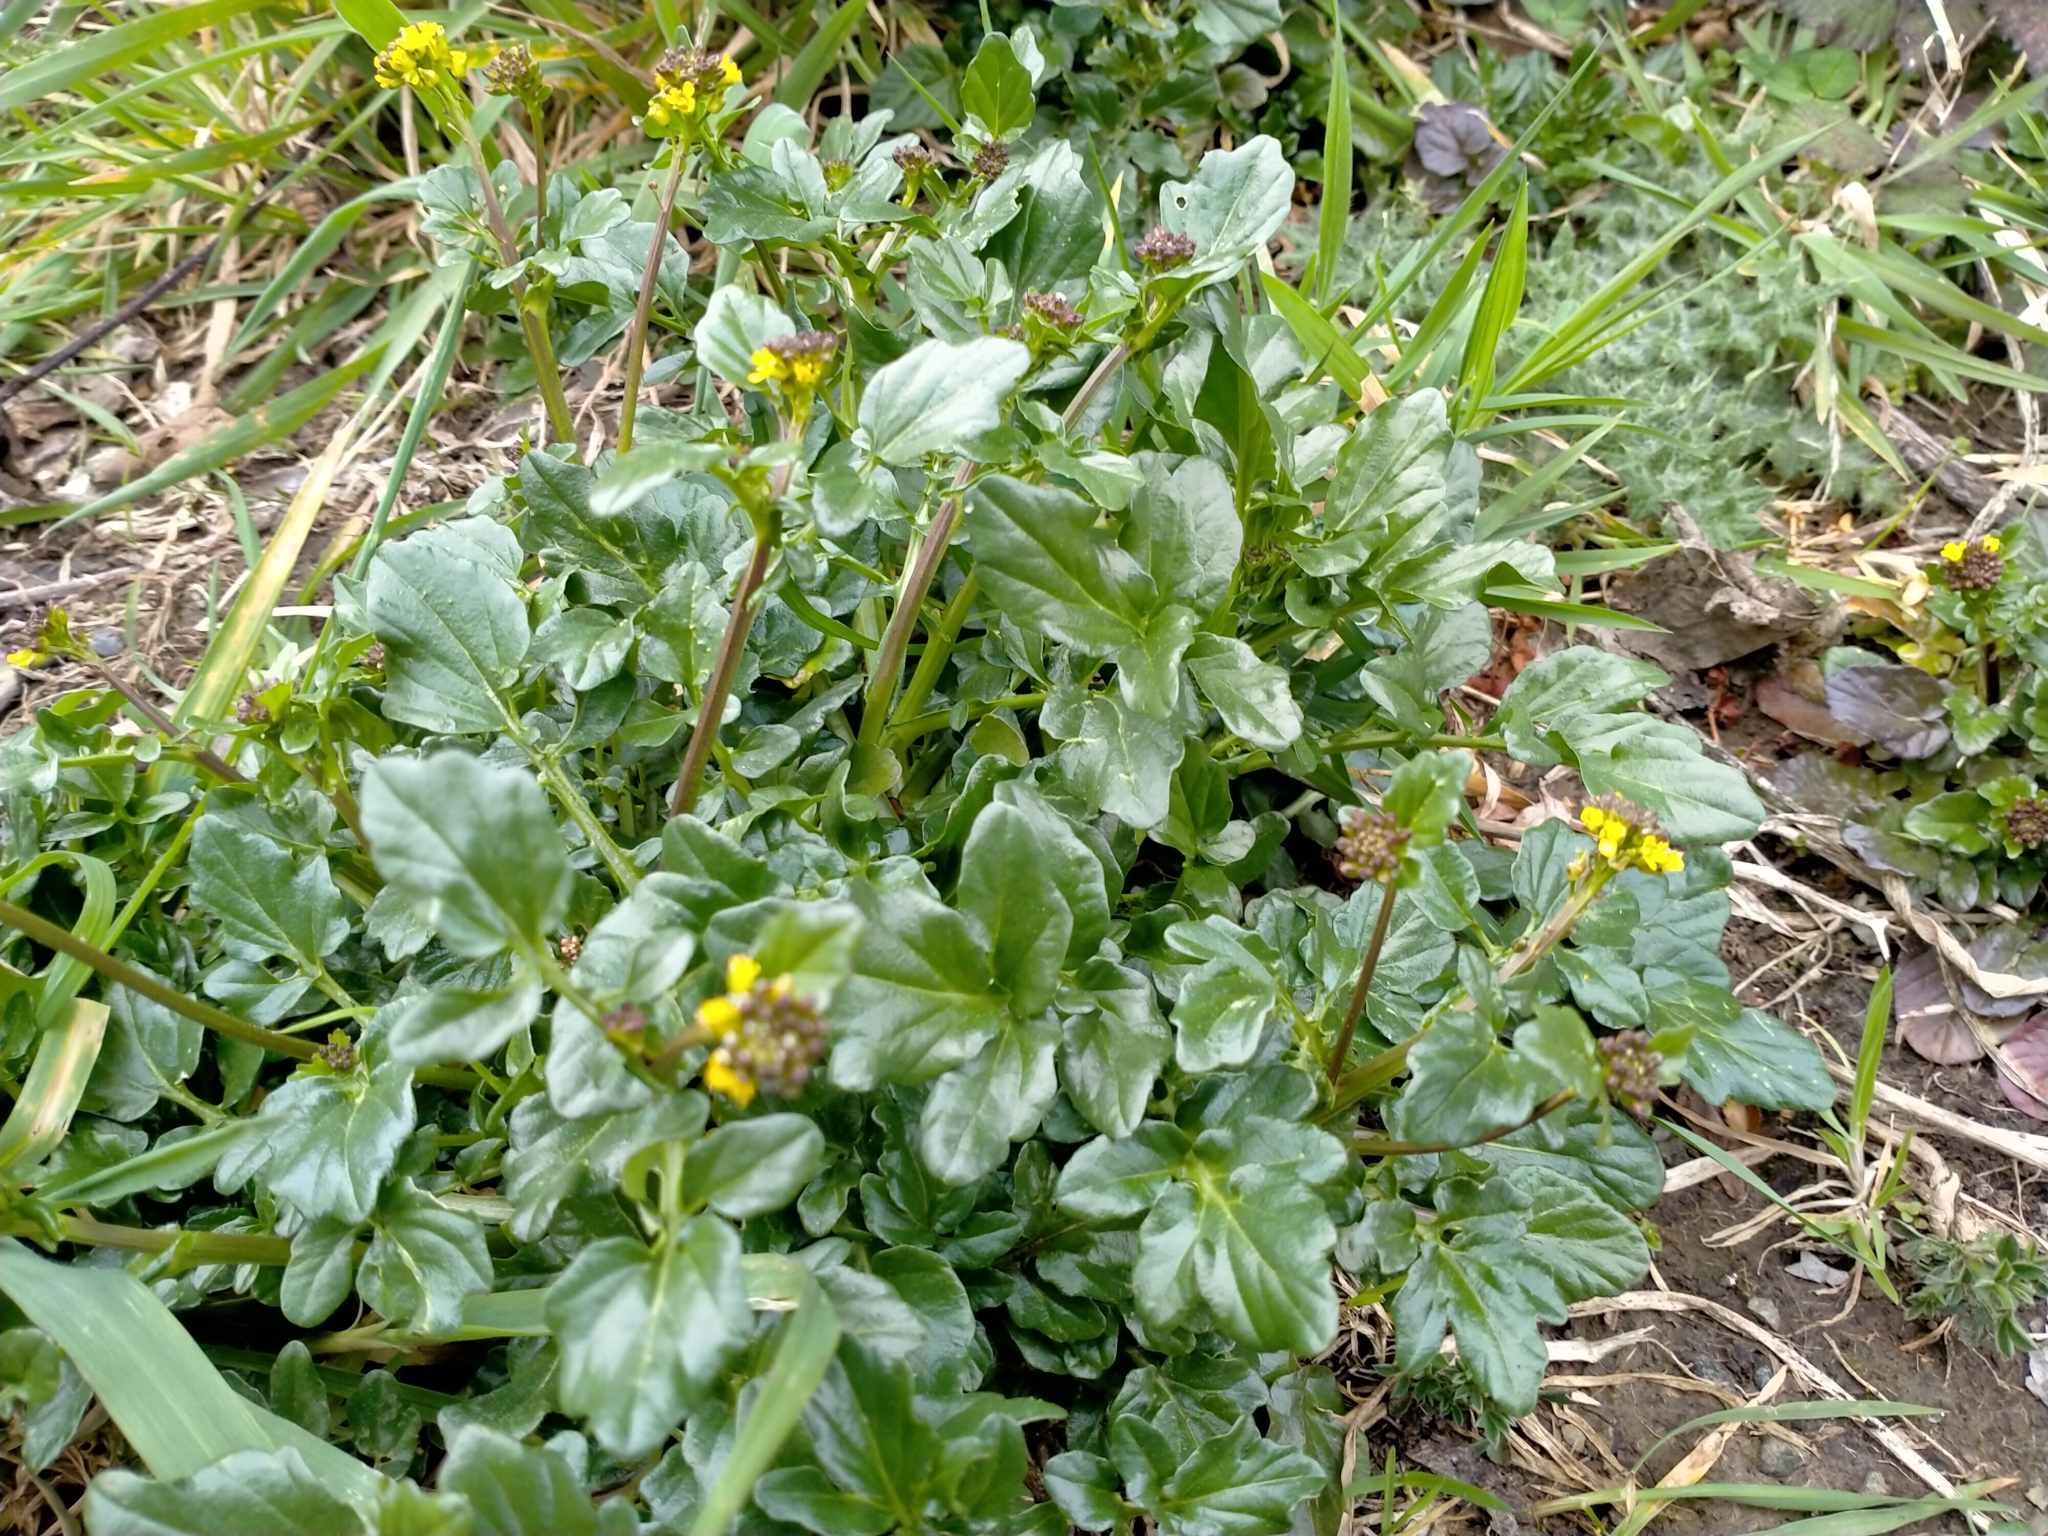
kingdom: Plantae
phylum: Tracheophyta
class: Magnoliopsida
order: Brassicales
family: Brassicaceae
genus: Barbarea
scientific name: Barbarea intermedia
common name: Medium-flowered winter-cress
